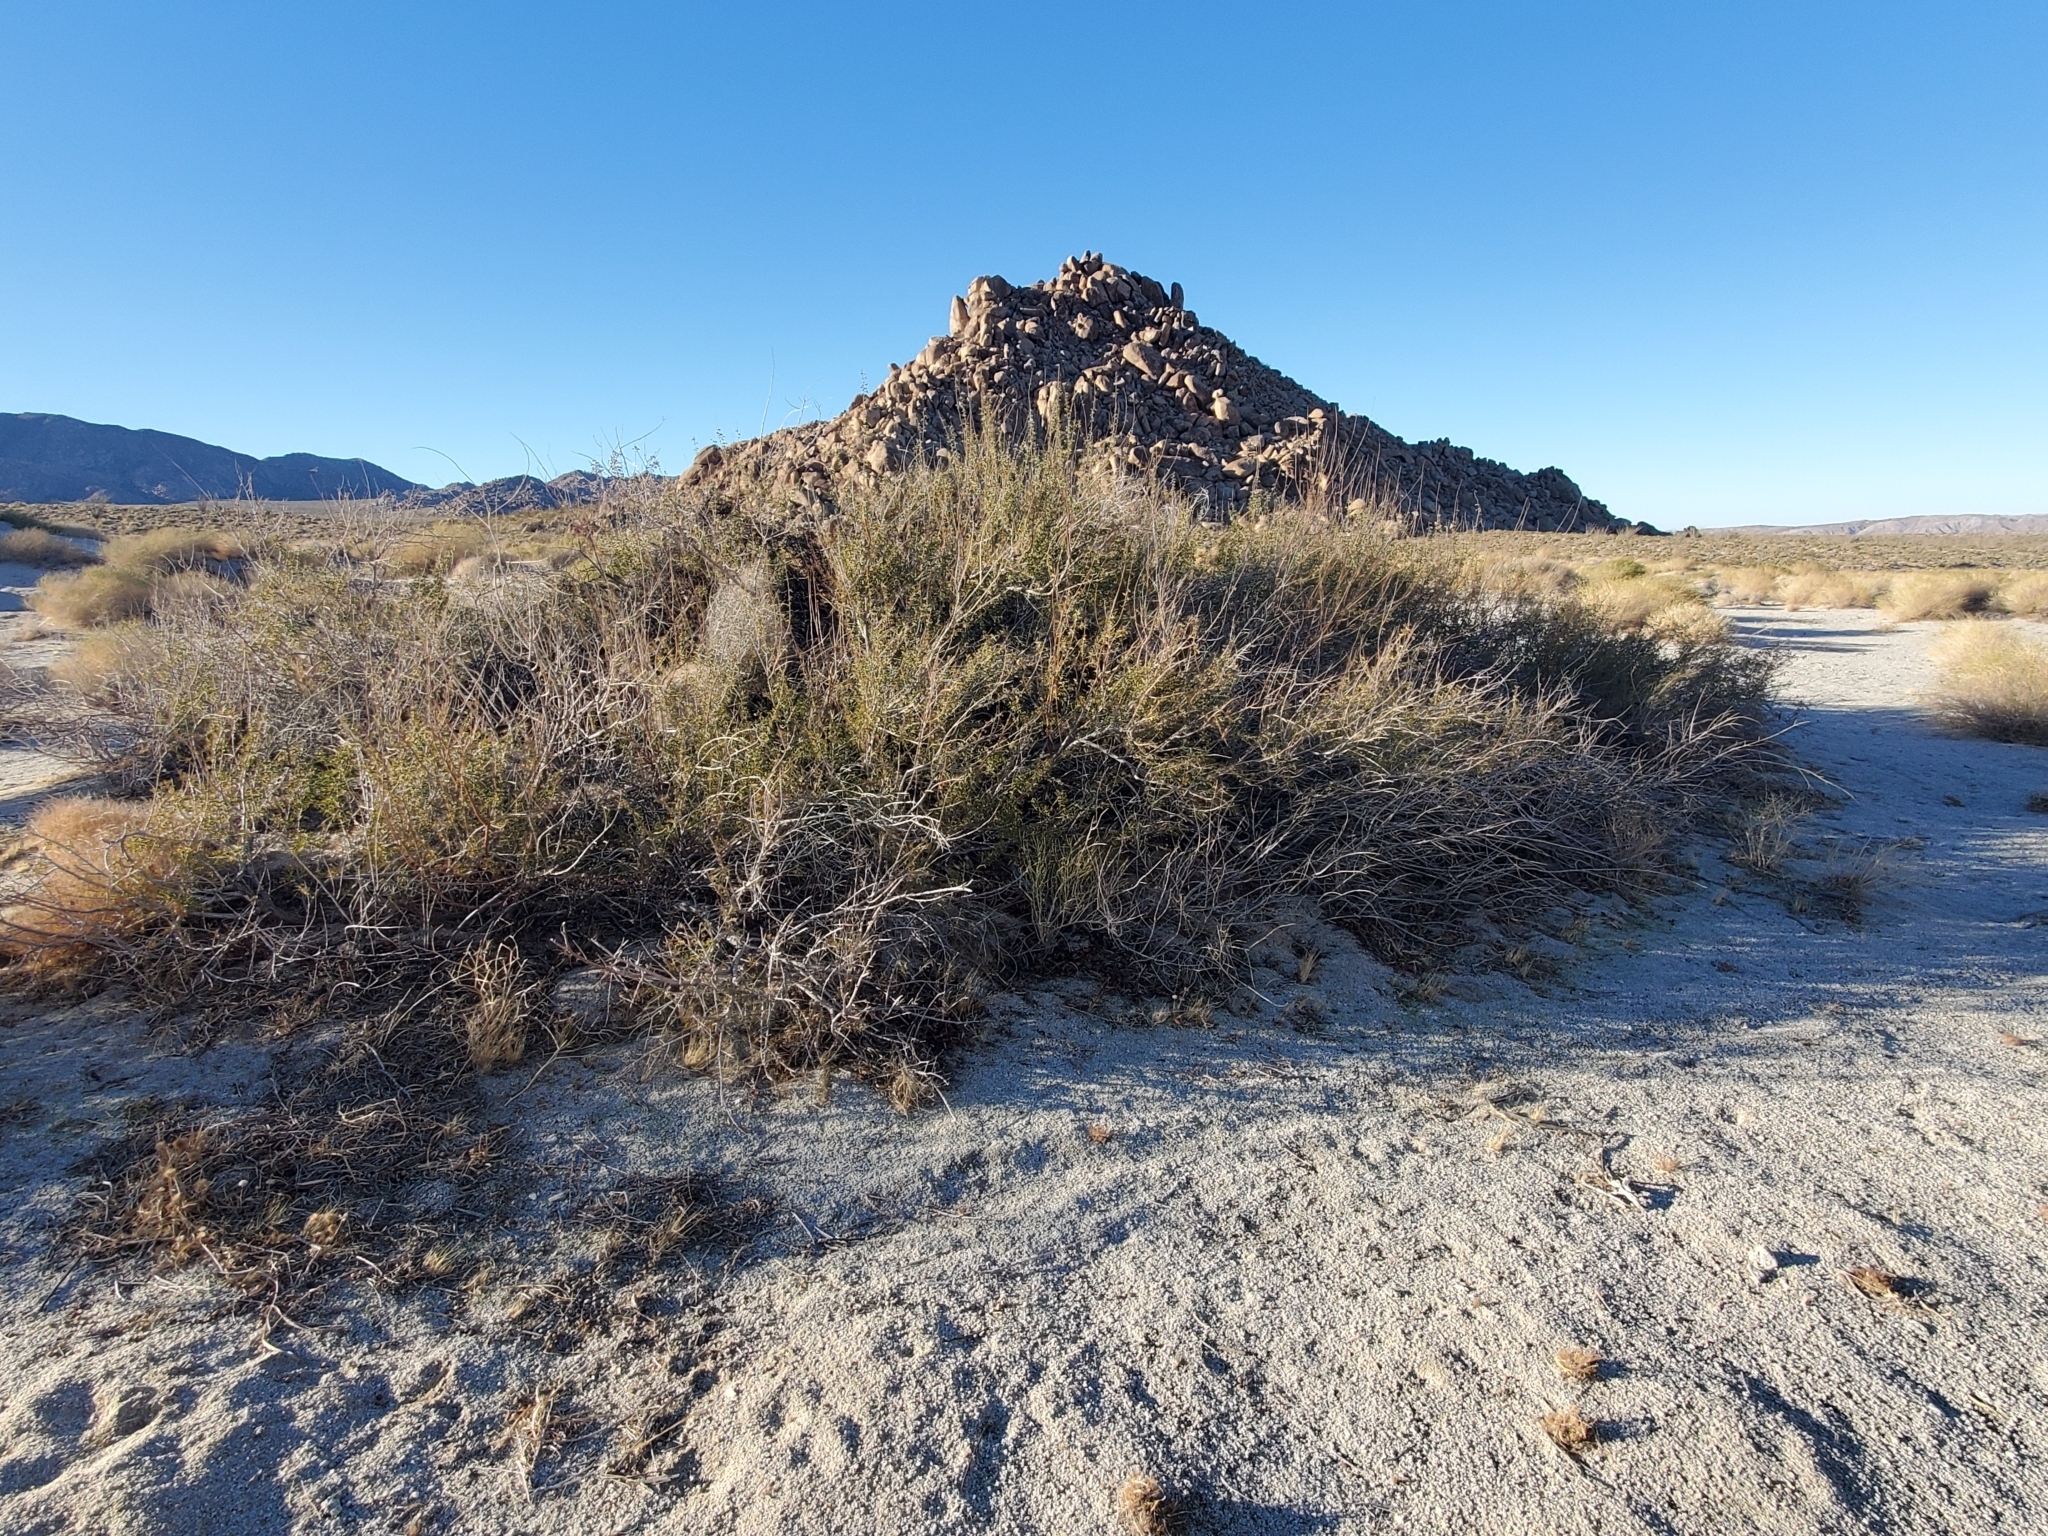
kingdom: Plantae
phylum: Tracheophyta
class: Magnoliopsida
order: Fabales
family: Fabaceae
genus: Senegalia
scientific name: Senegalia greggii
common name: Texas-mimosa
